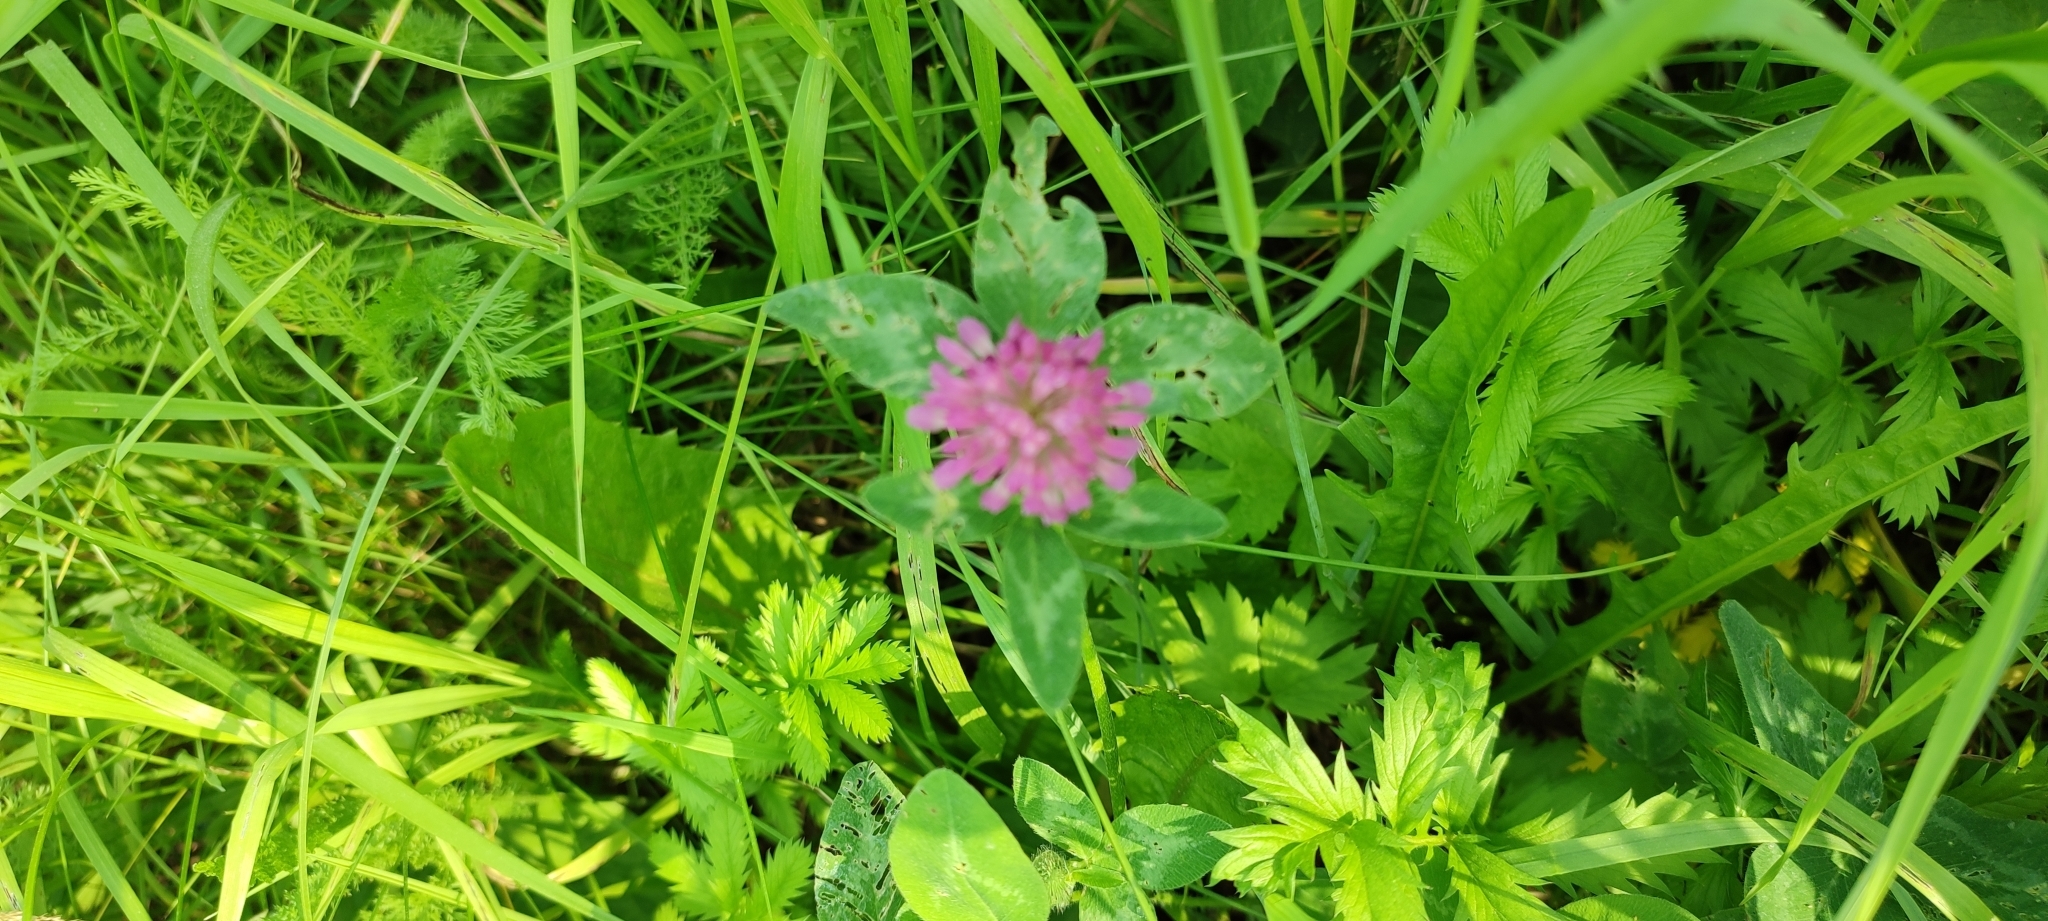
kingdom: Plantae
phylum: Tracheophyta
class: Magnoliopsida
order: Fabales
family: Fabaceae
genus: Trifolium
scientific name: Trifolium pratense
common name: Red clover
